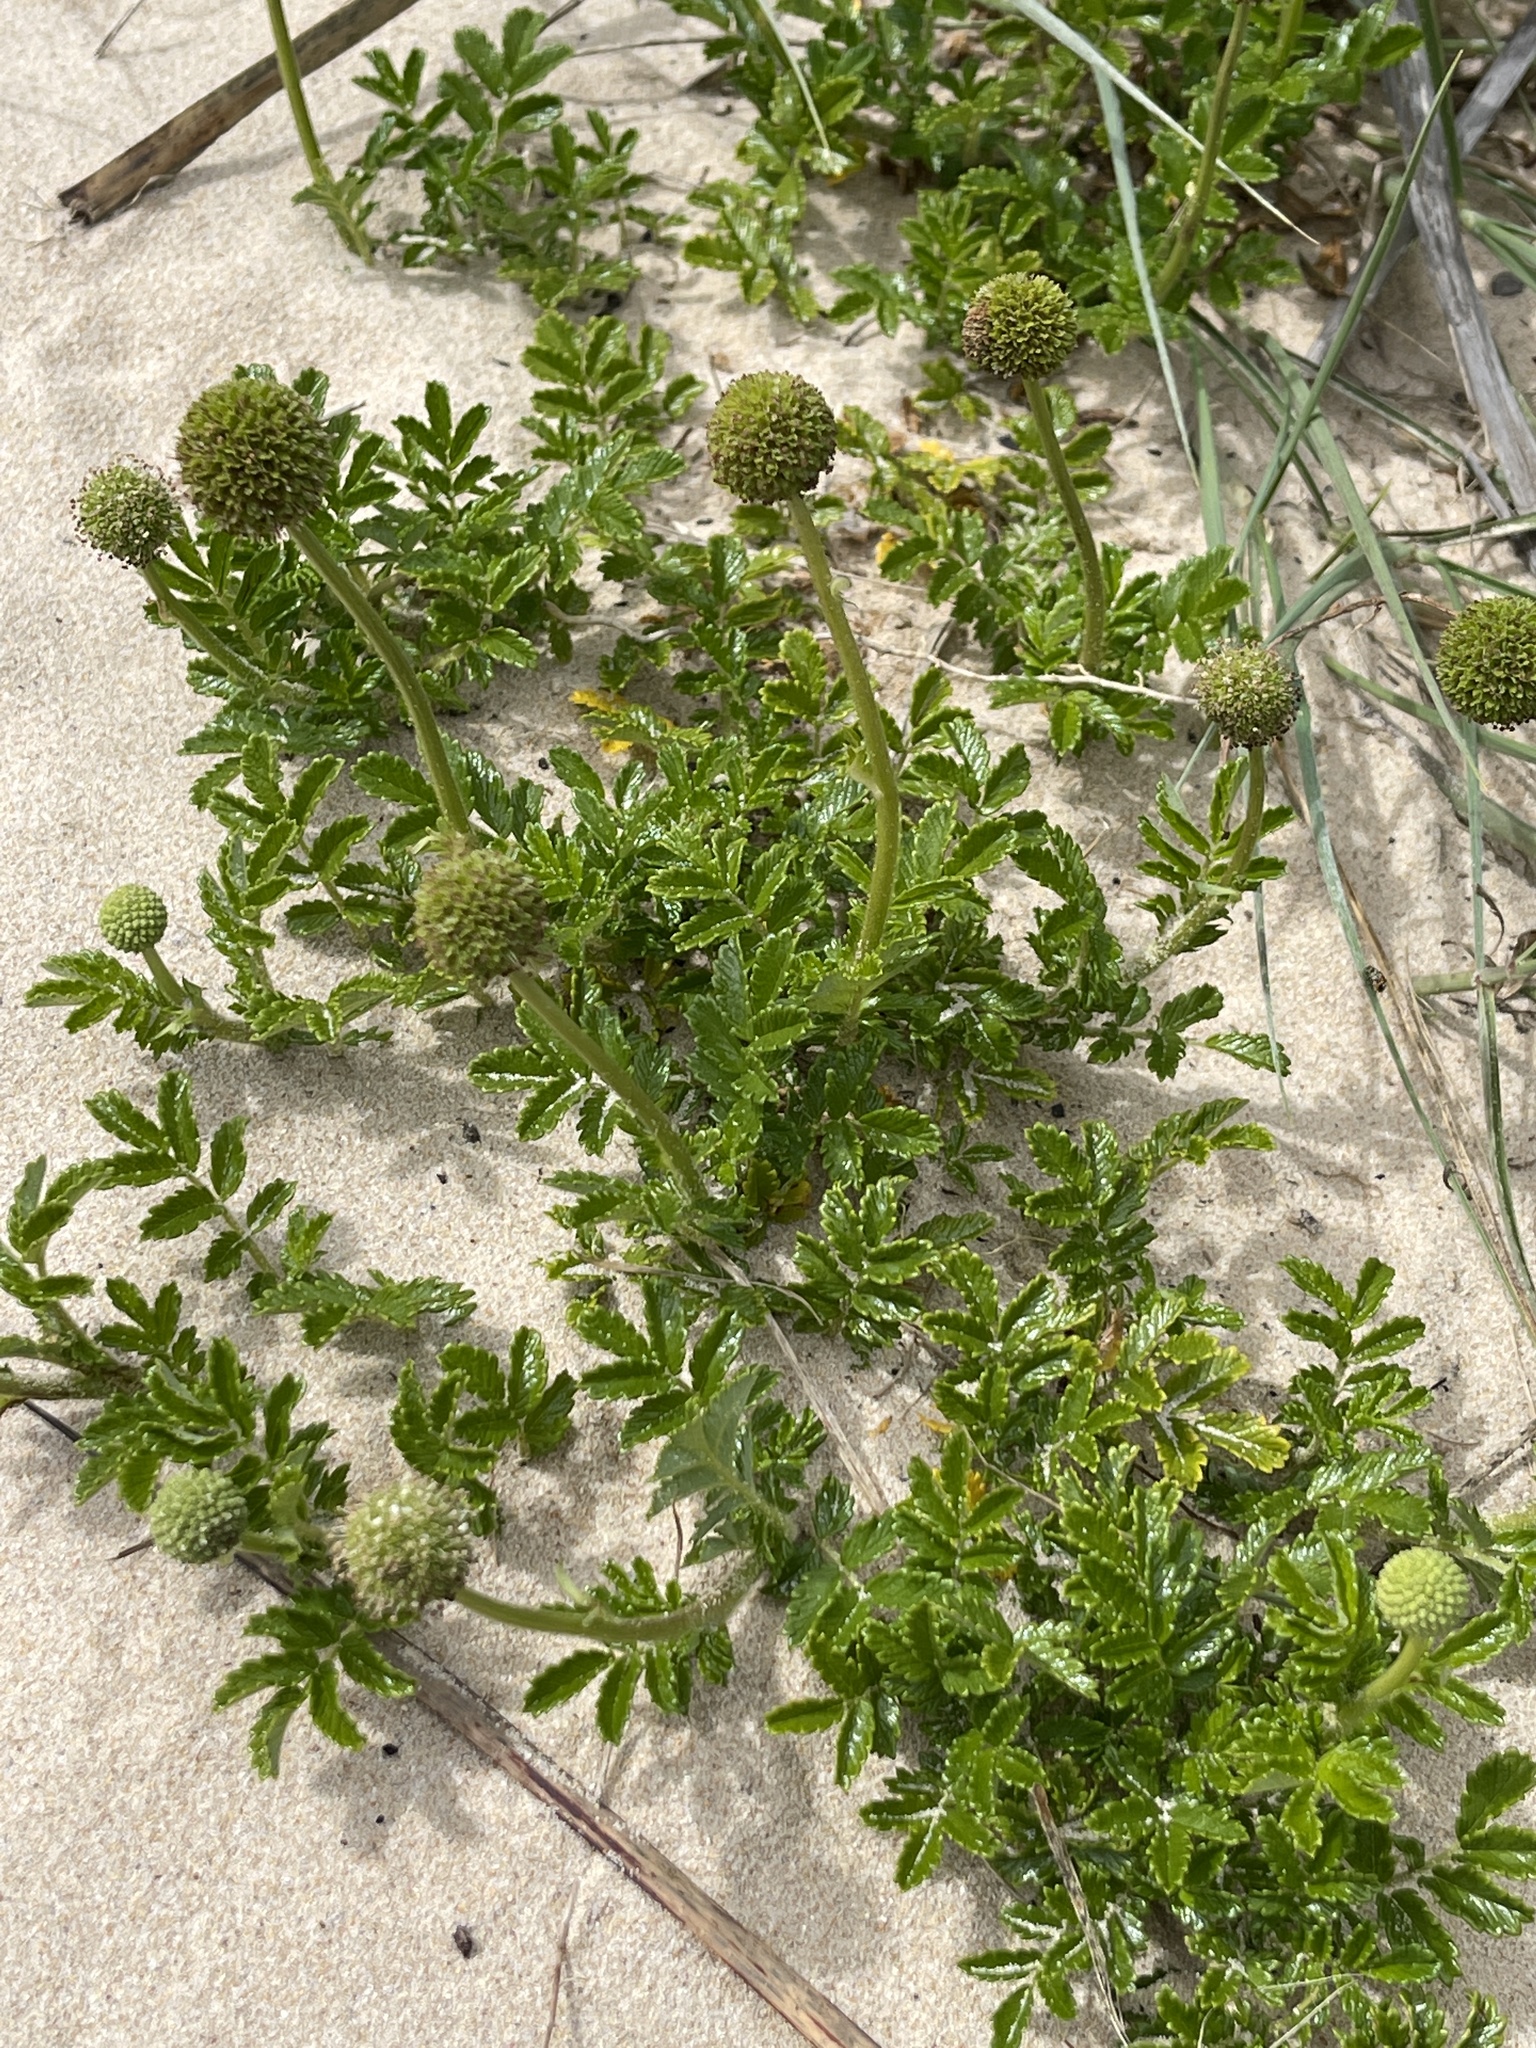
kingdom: Plantae
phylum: Tracheophyta
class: Magnoliopsida
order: Rosales
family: Rosaceae
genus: Acaena
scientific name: Acaena novae-zelandiae
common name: Pirri-pirri-bur
